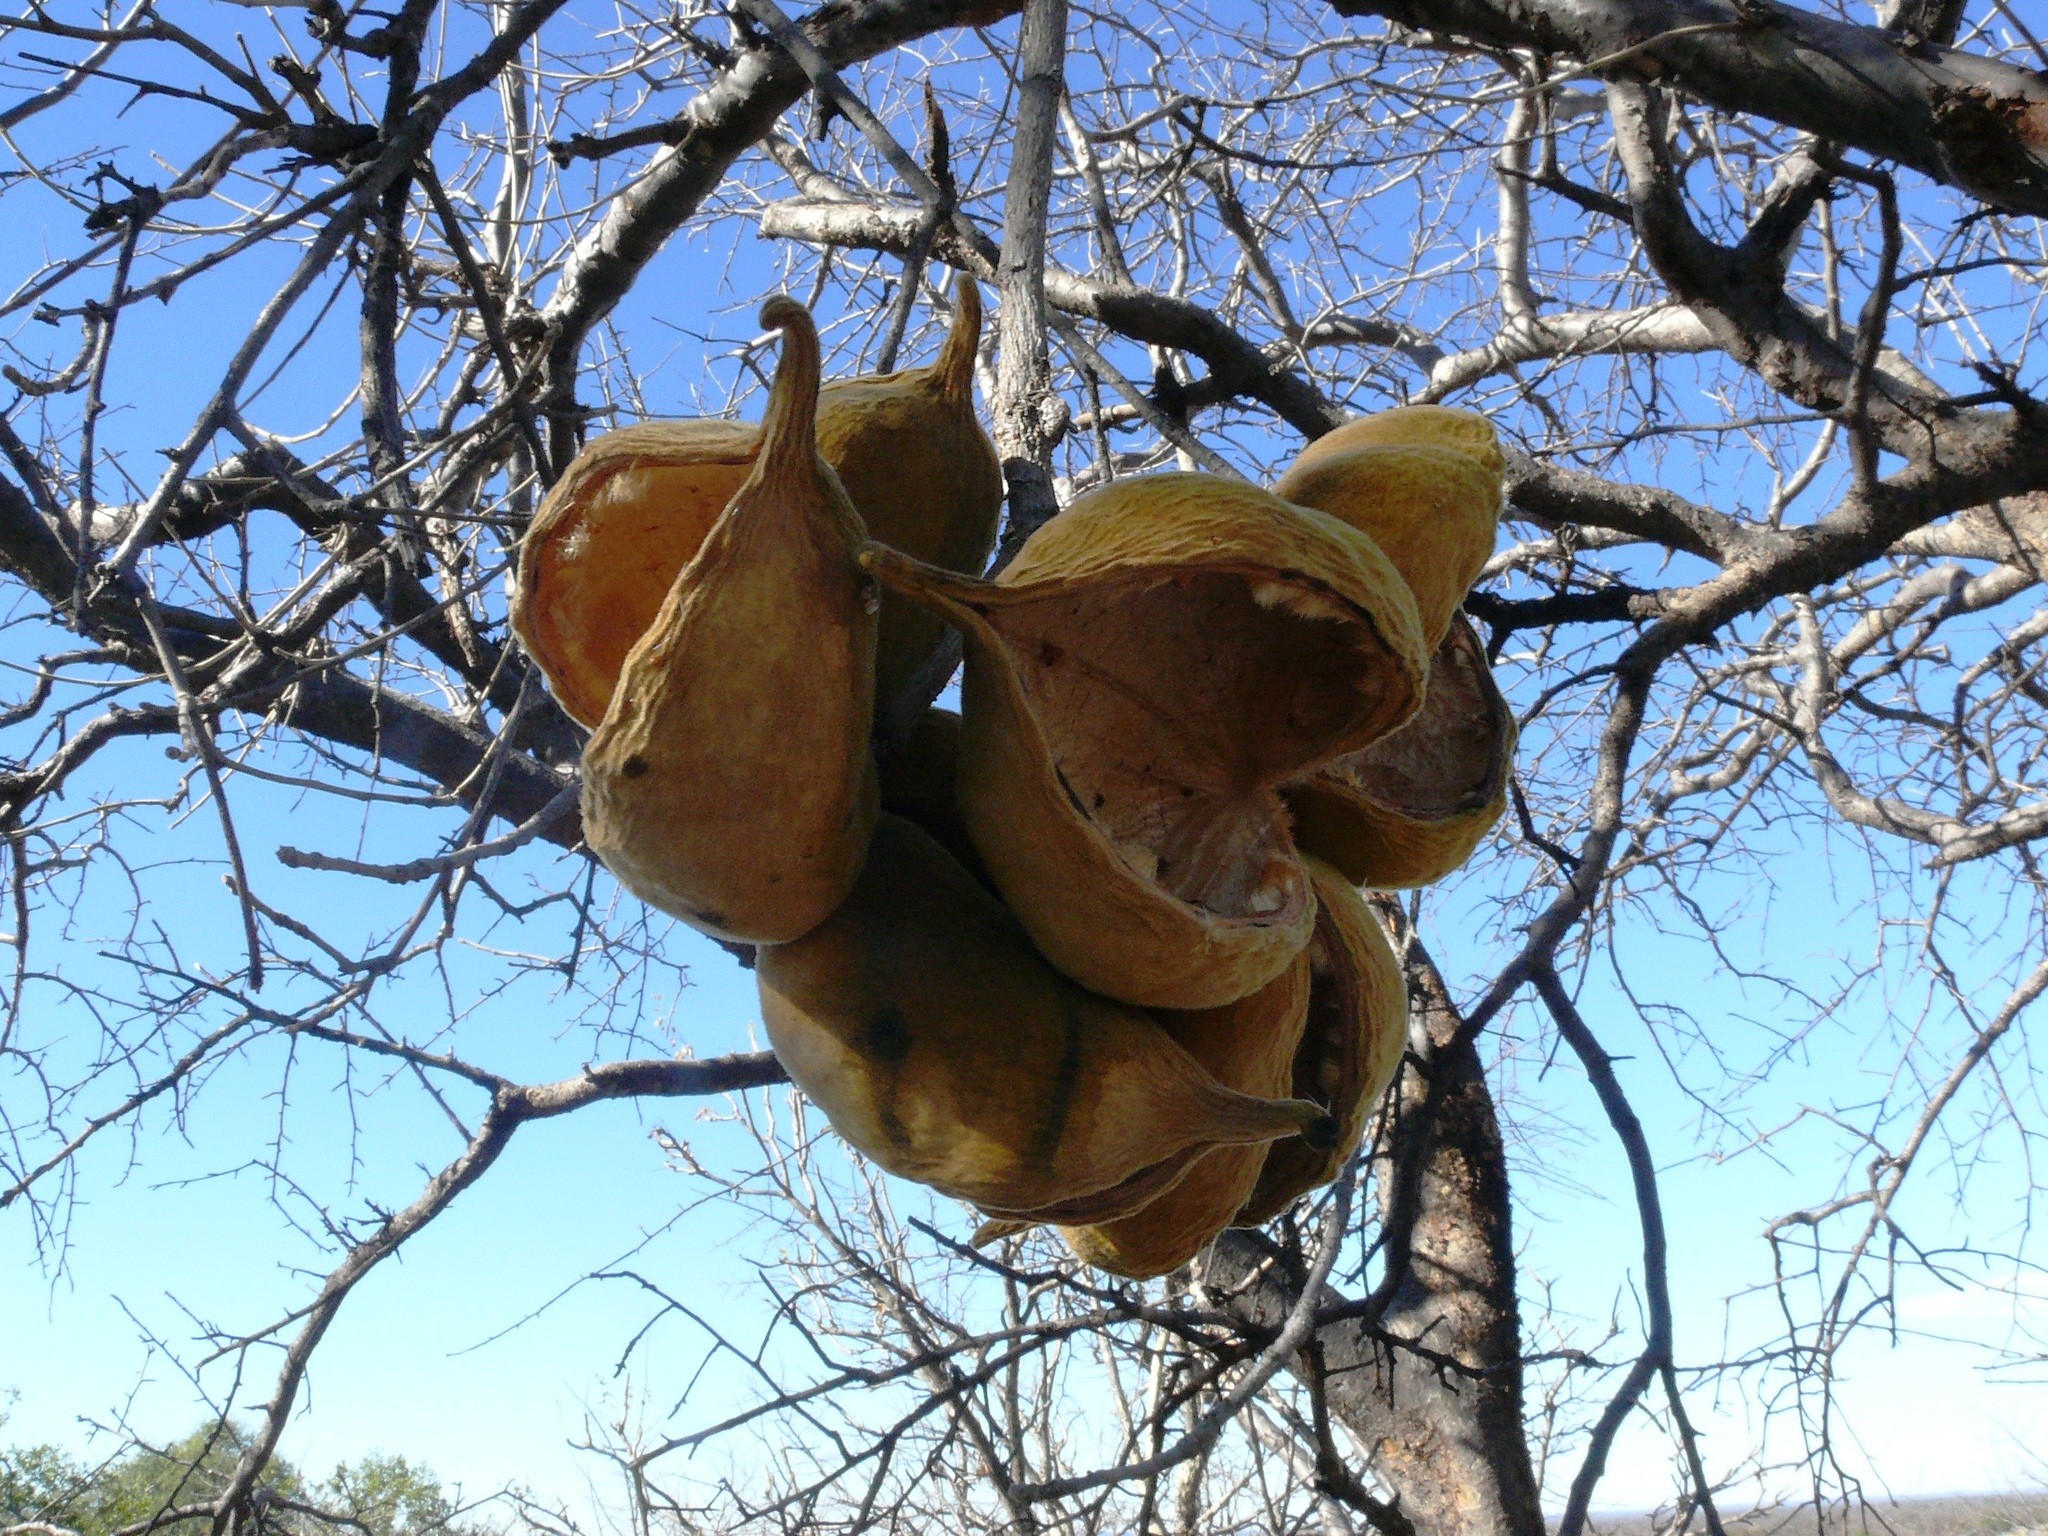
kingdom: Plantae
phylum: Tracheophyta
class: Magnoliopsida
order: Malvales
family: Malvaceae
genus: Sterculia
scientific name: Sterculia africana
